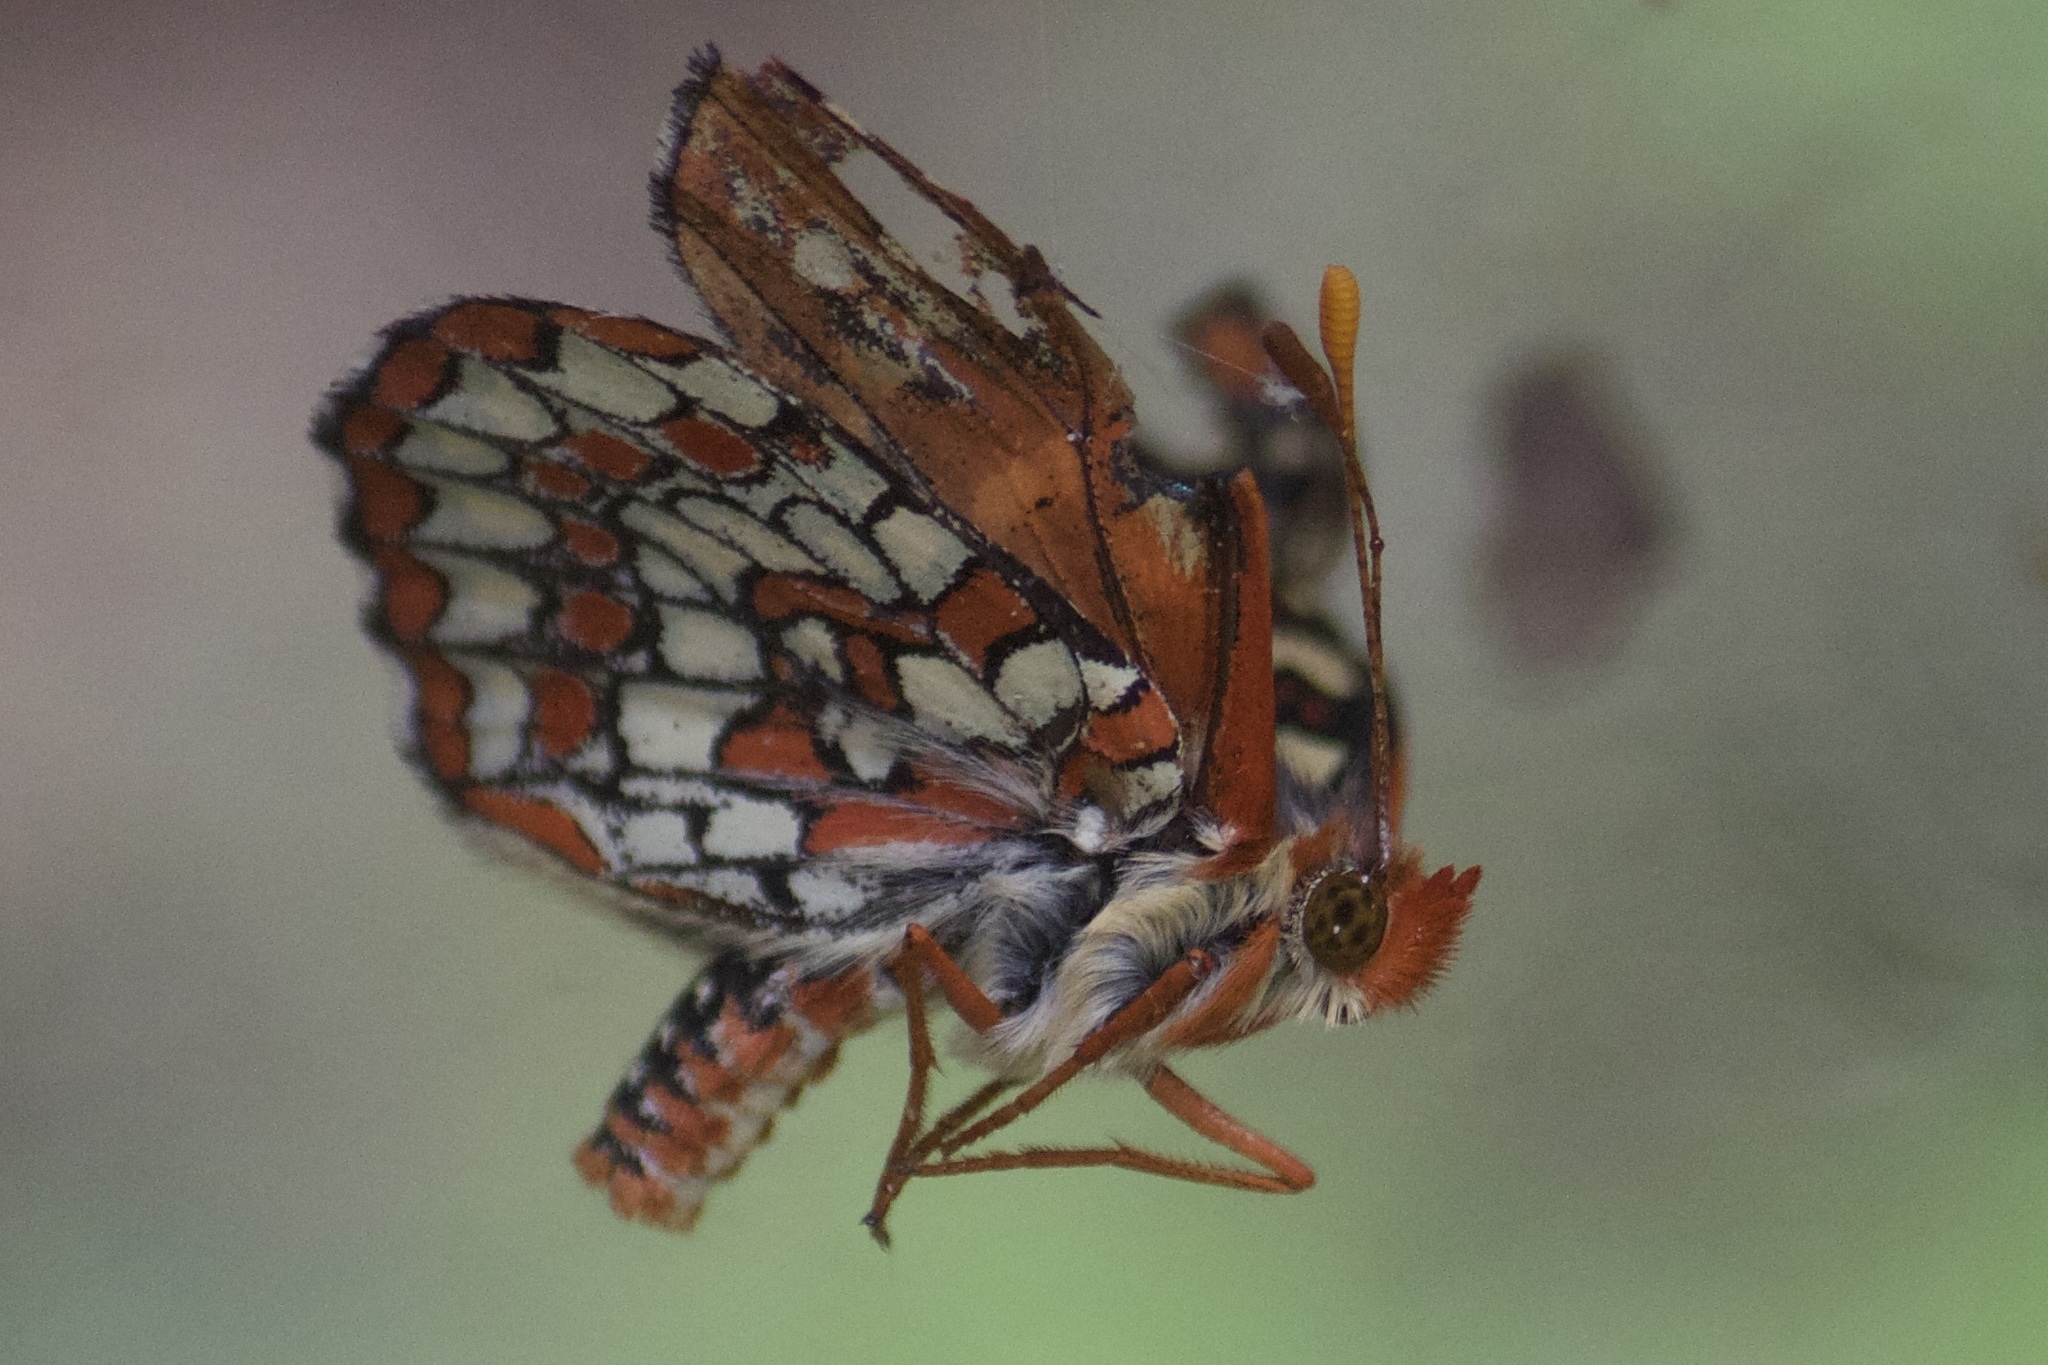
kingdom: Animalia
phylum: Arthropoda
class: Insecta
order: Lepidoptera
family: Nymphalidae
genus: Occidryas
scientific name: Occidryas chalcedona
